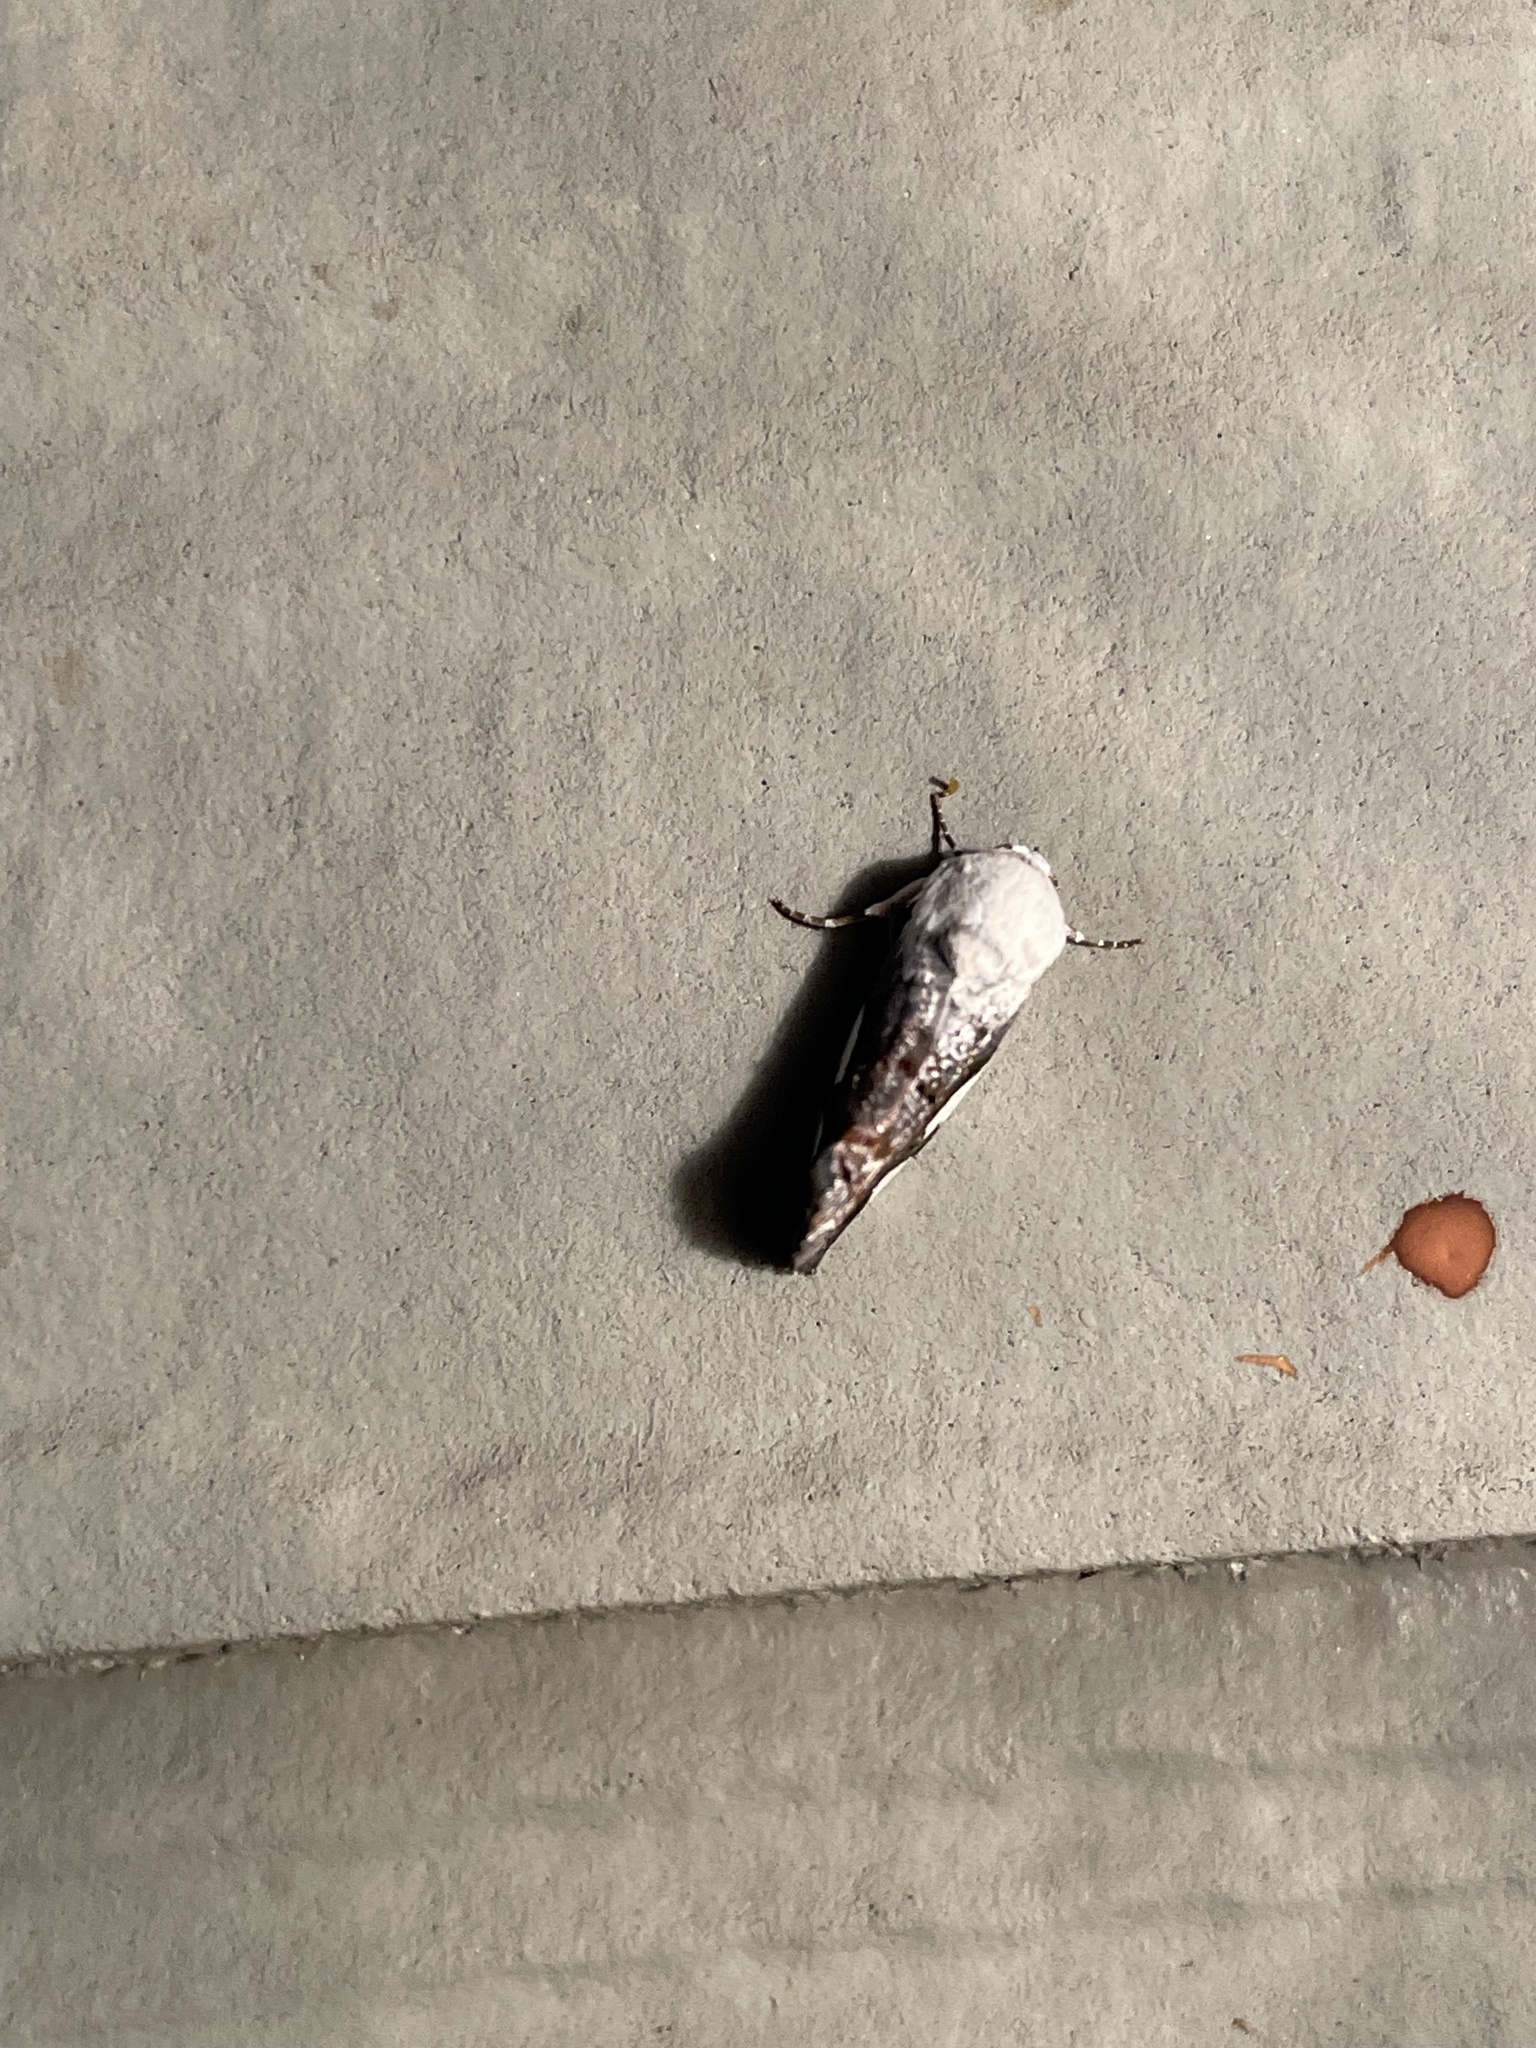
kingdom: Animalia
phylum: Arthropoda
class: Insecta
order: Lepidoptera
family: Noctuidae
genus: Acontia
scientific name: Acontia quadriplaga
